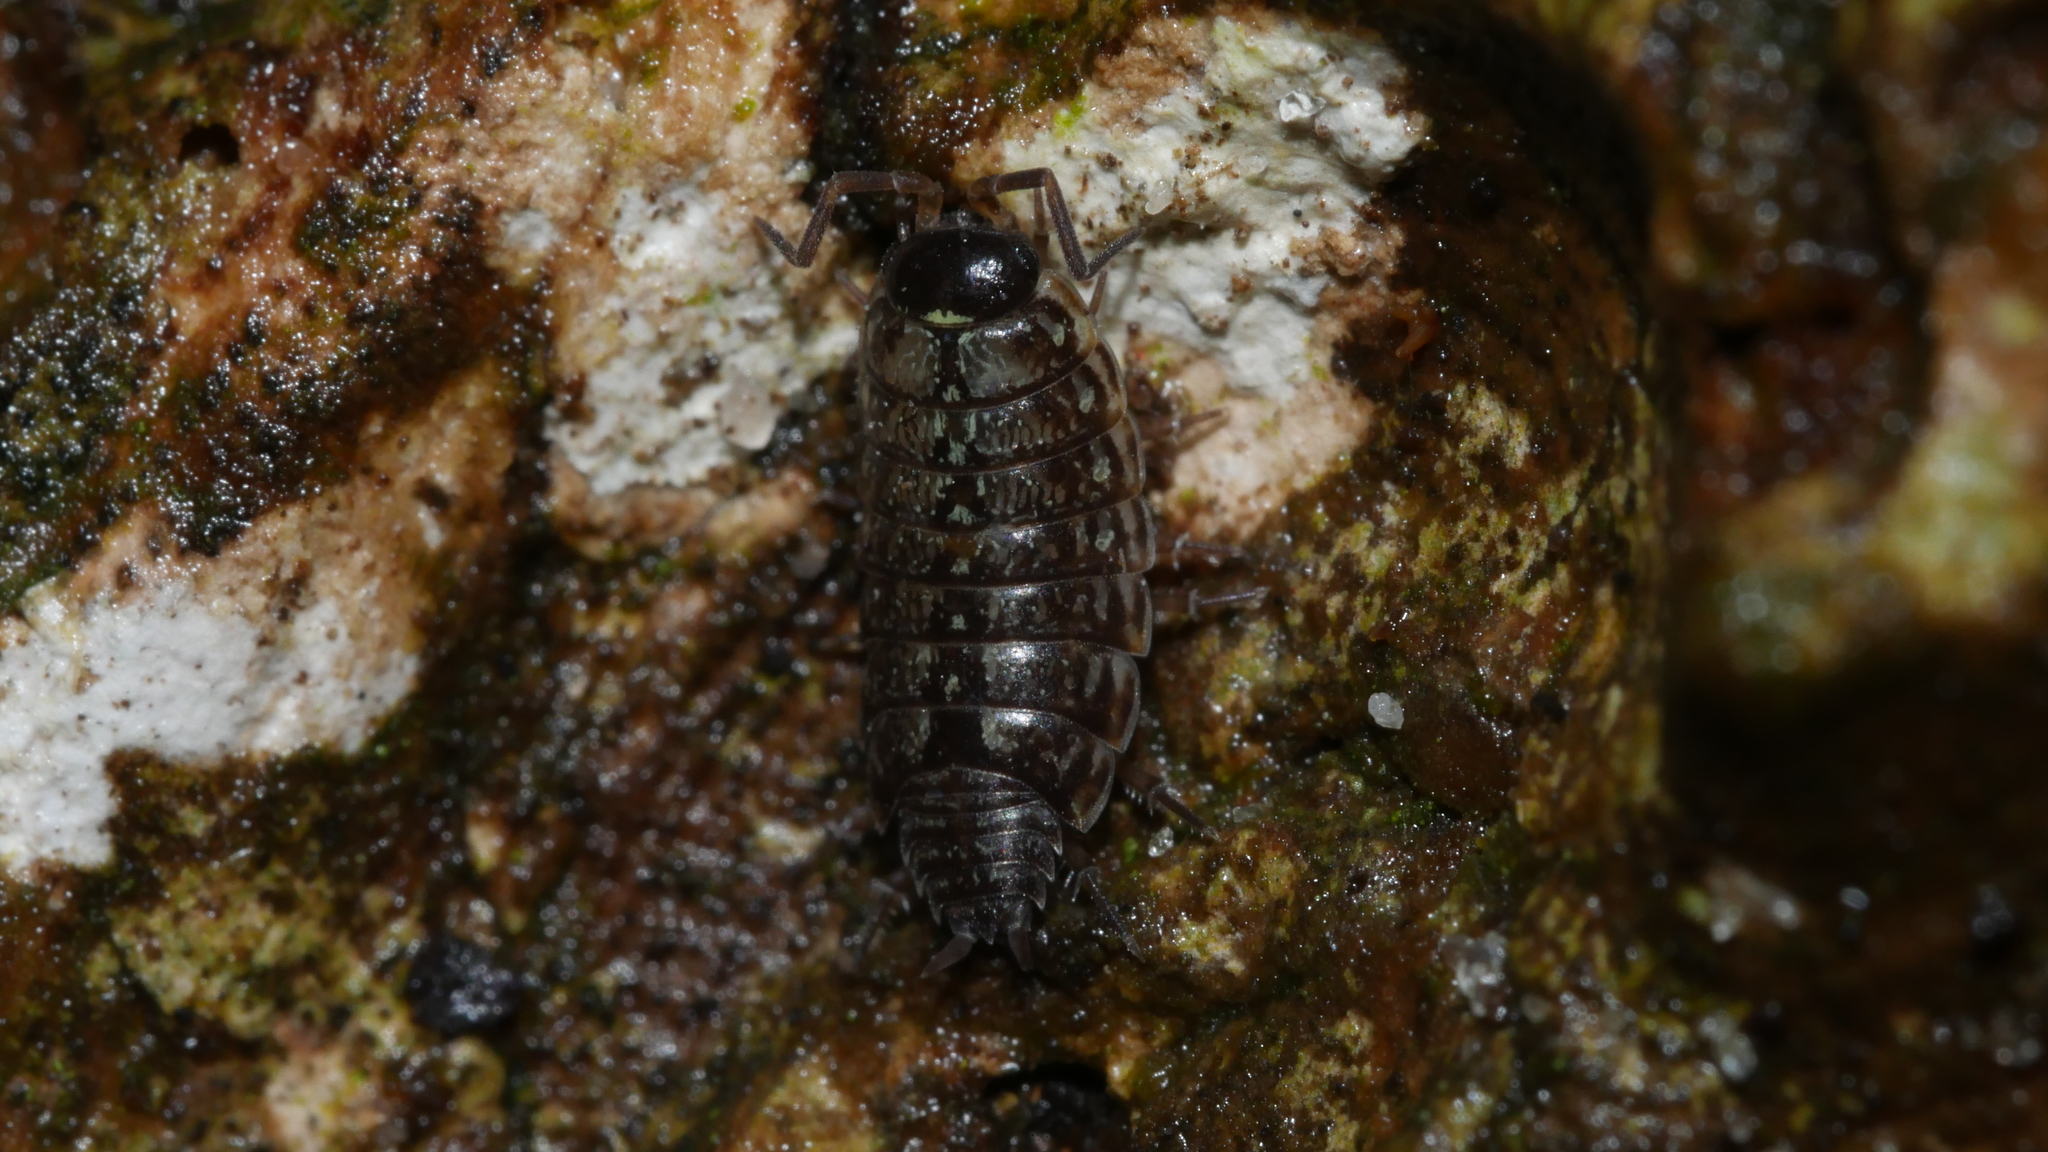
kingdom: Animalia
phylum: Arthropoda
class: Malacostraca
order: Isopoda
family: Philosciidae
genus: Philoscia
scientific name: Philoscia muscorum
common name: Common striped woodlouse
